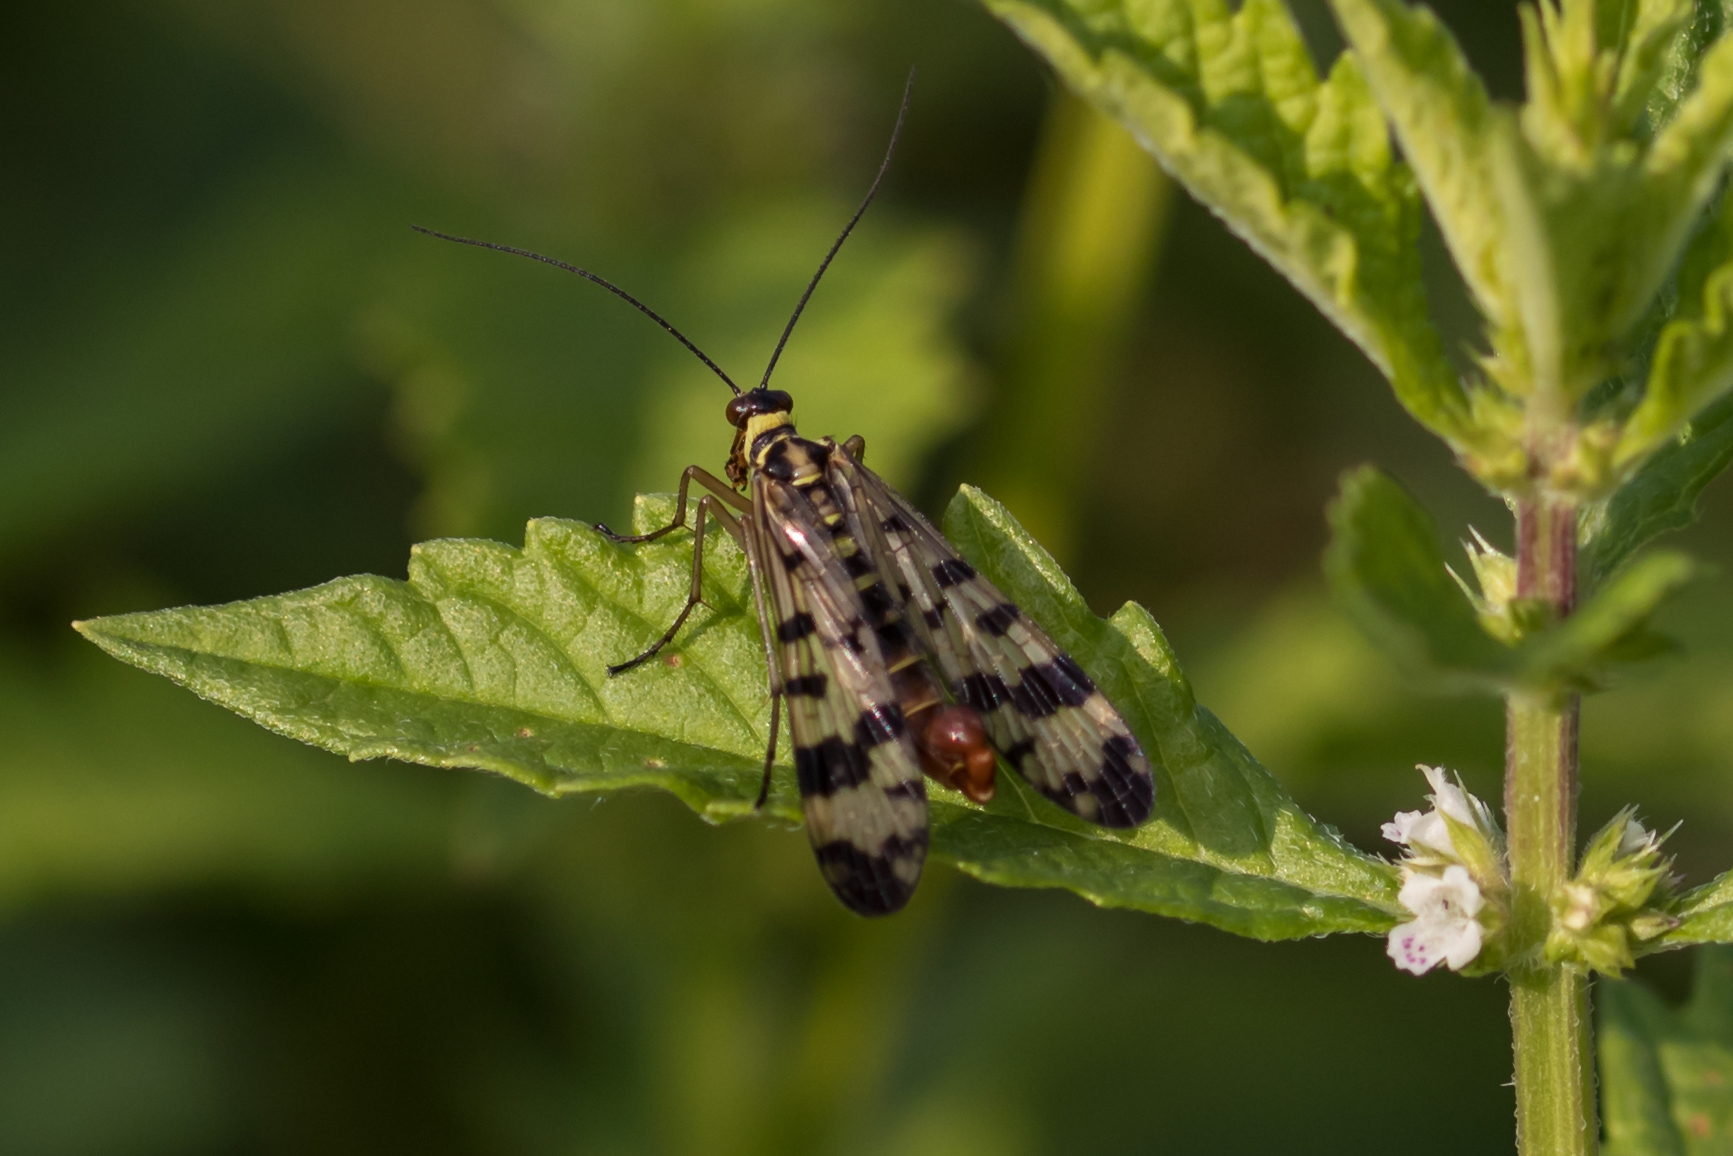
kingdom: Animalia
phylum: Arthropoda
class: Insecta
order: Mecoptera
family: Panorpidae
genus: Panorpa
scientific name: Panorpa communis
